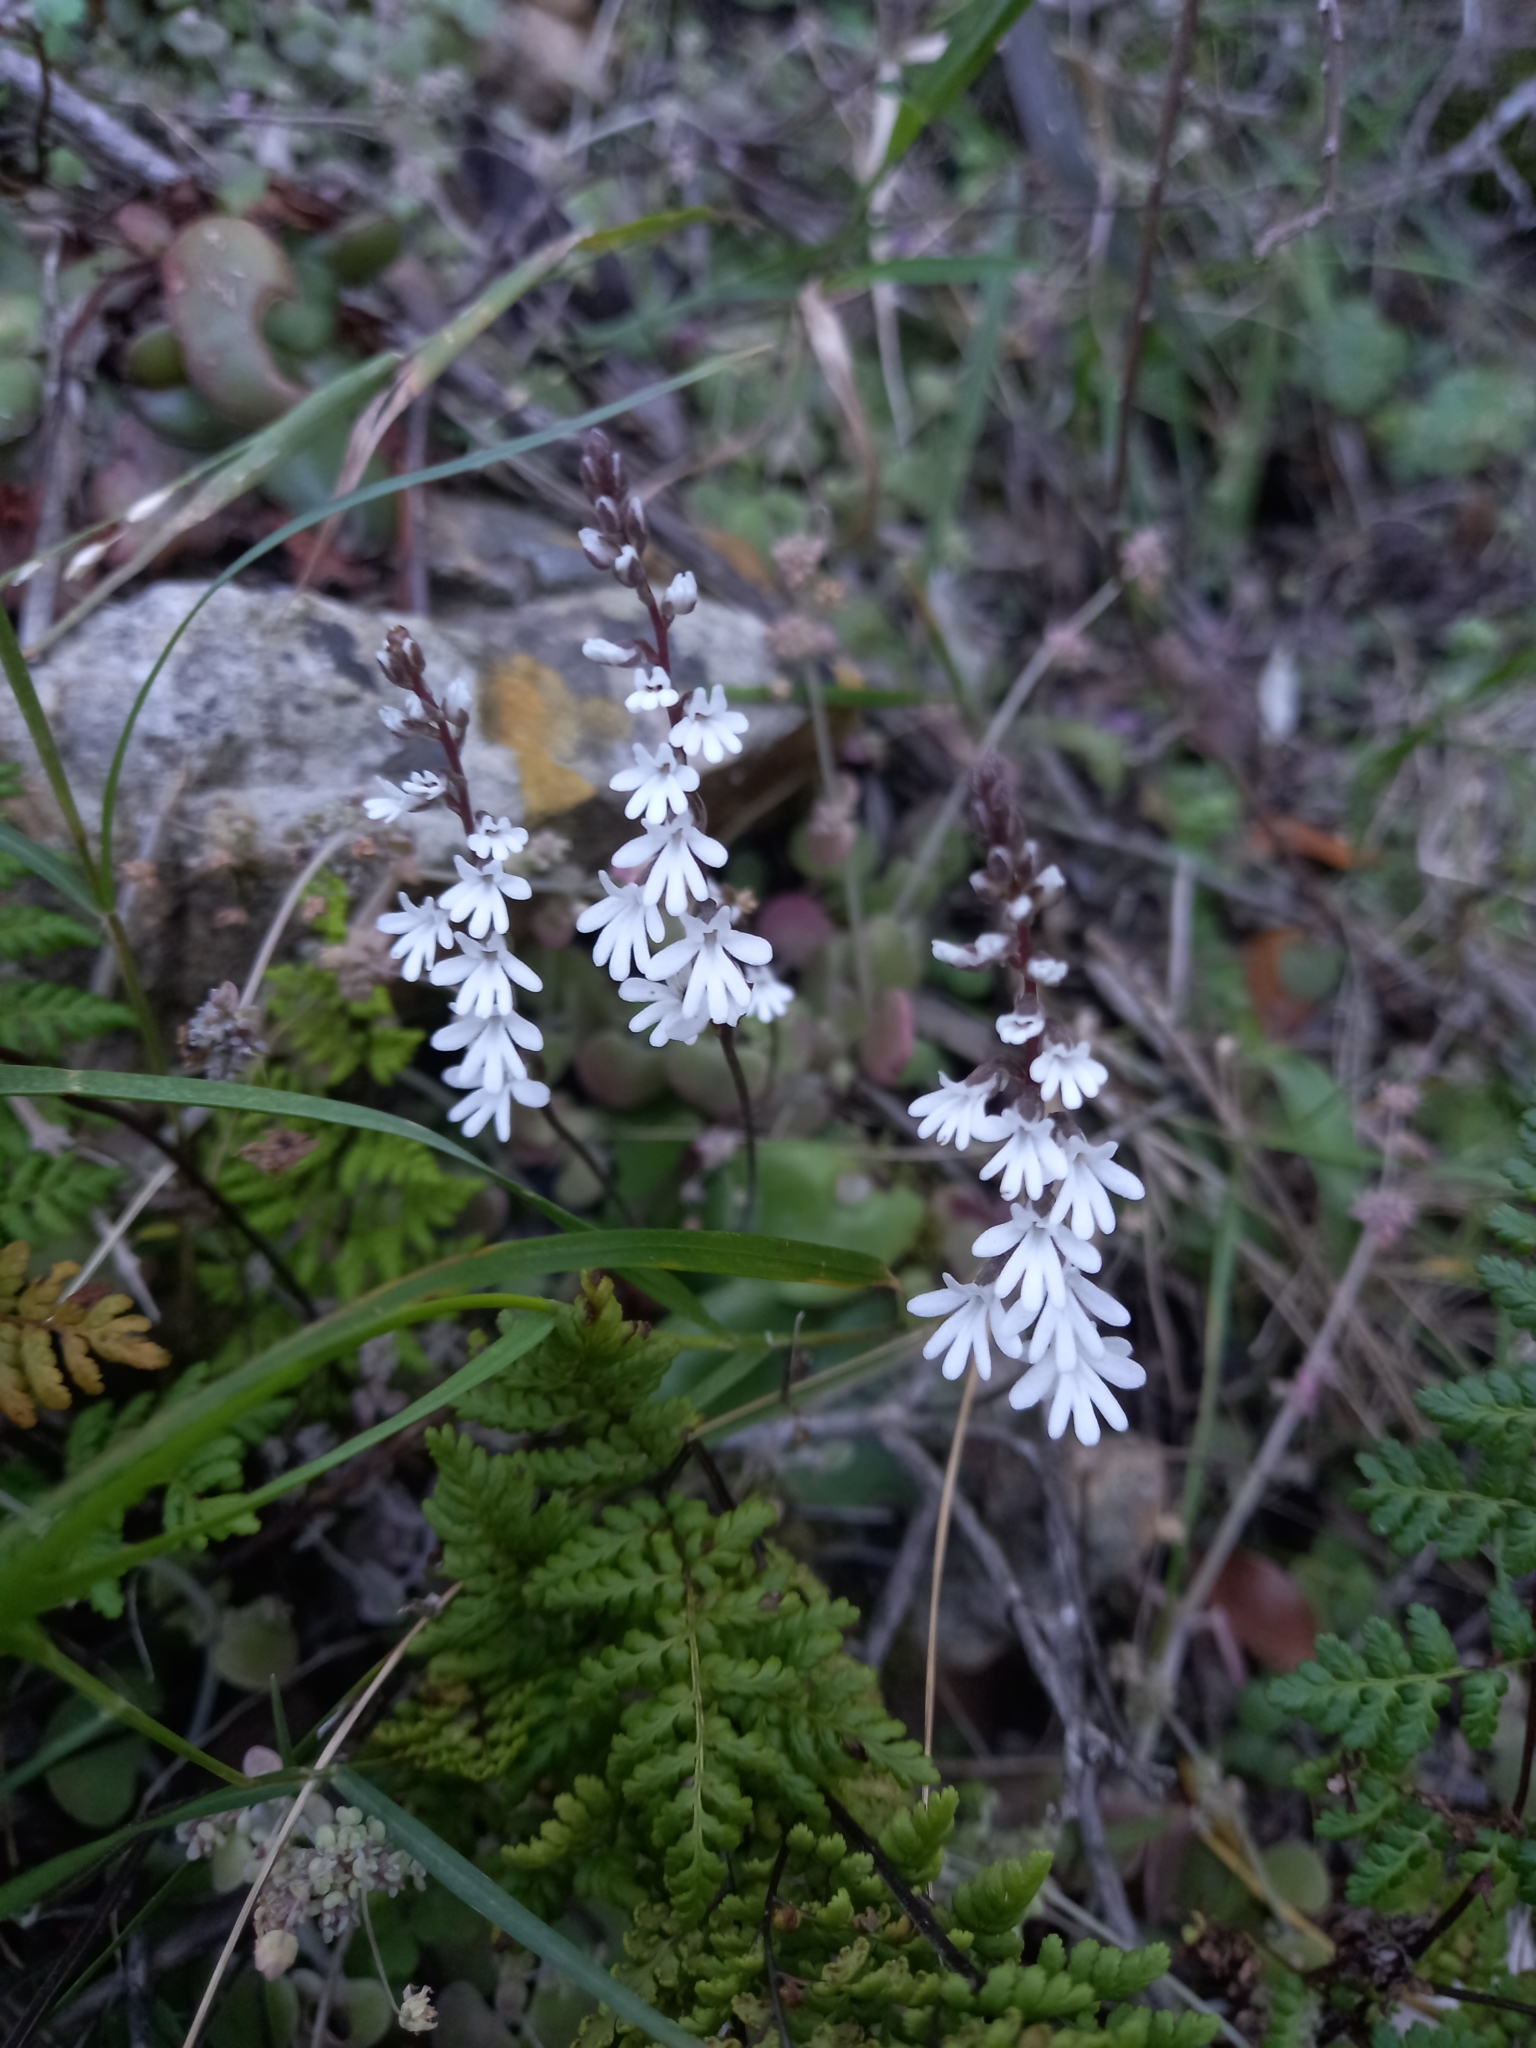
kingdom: Plantae
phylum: Tracheophyta
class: Liliopsida
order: Asparagales
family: Orchidaceae
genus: Holothrix
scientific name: Holothrix parviflora
